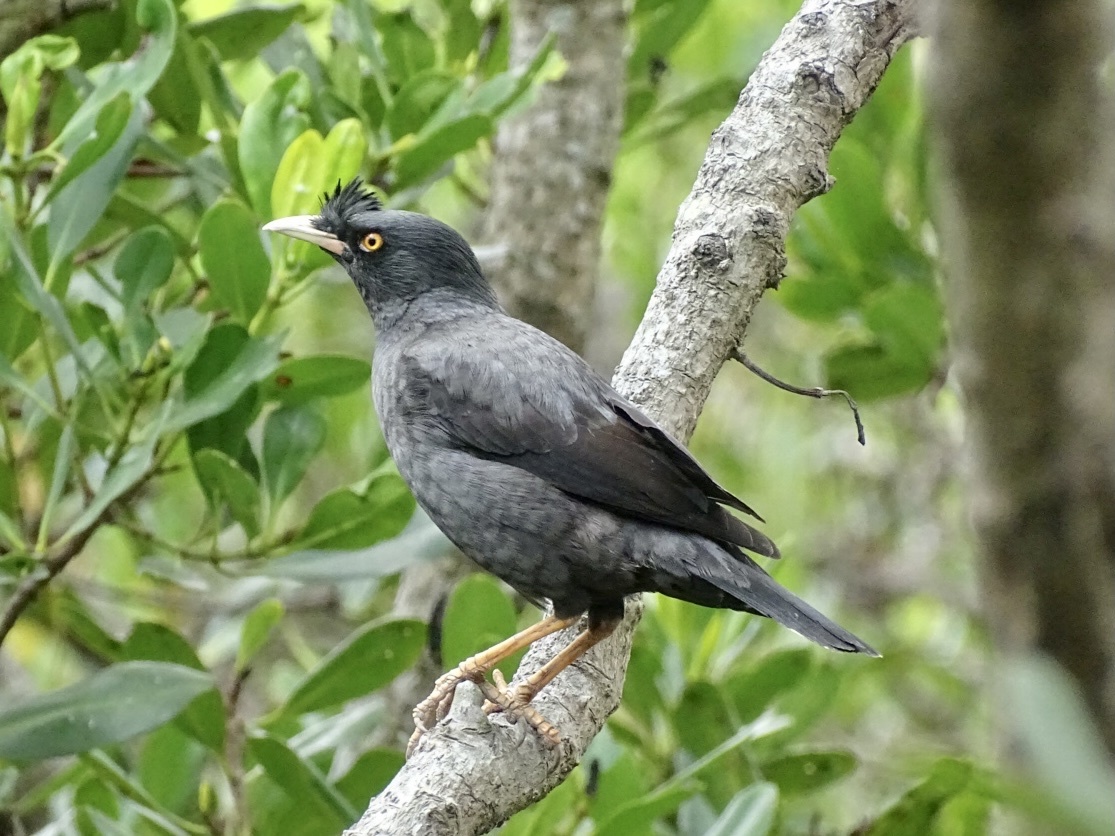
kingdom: Animalia
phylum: Chordata
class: Aves
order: Passeriformes
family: Sturnidae
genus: Acridotheres
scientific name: Acridotheres cristatellus
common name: Crested myna
